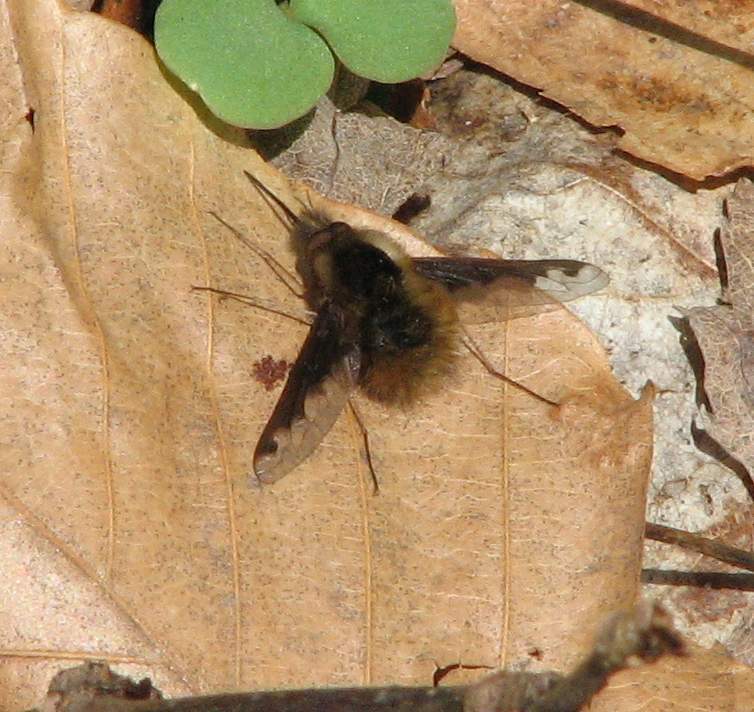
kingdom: Animalia
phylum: Arthropoda
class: Insecta
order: Diptera
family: Bombyliidae
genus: Bombylius
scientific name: Bombylius major
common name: Bee fly
